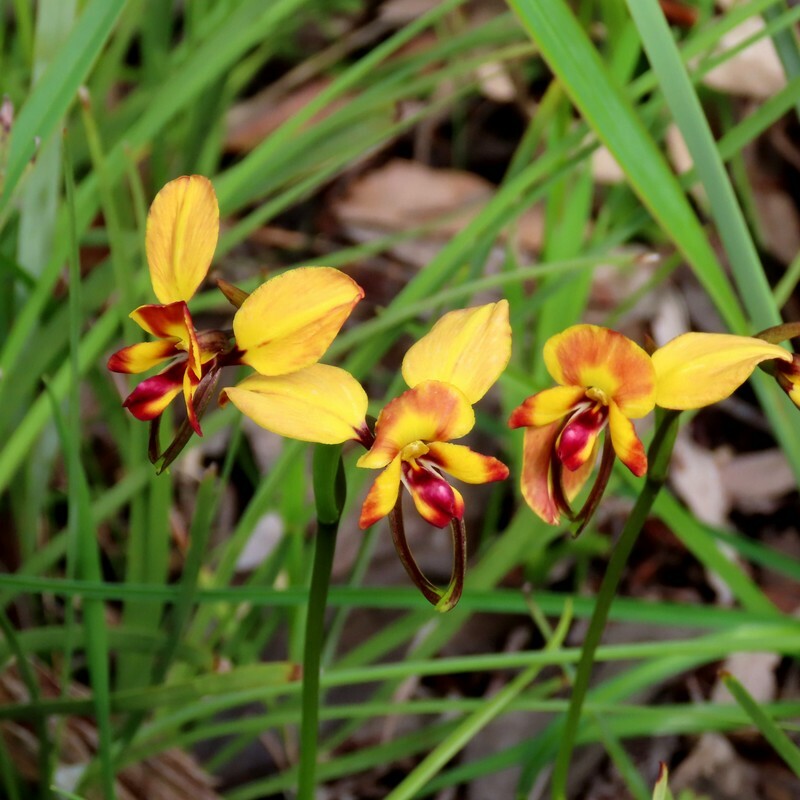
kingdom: Plantae
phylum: Tracheophyta
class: Liliopsida
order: Asparagales
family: Orchidaceae
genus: Diuris
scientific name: Diuris orientis
